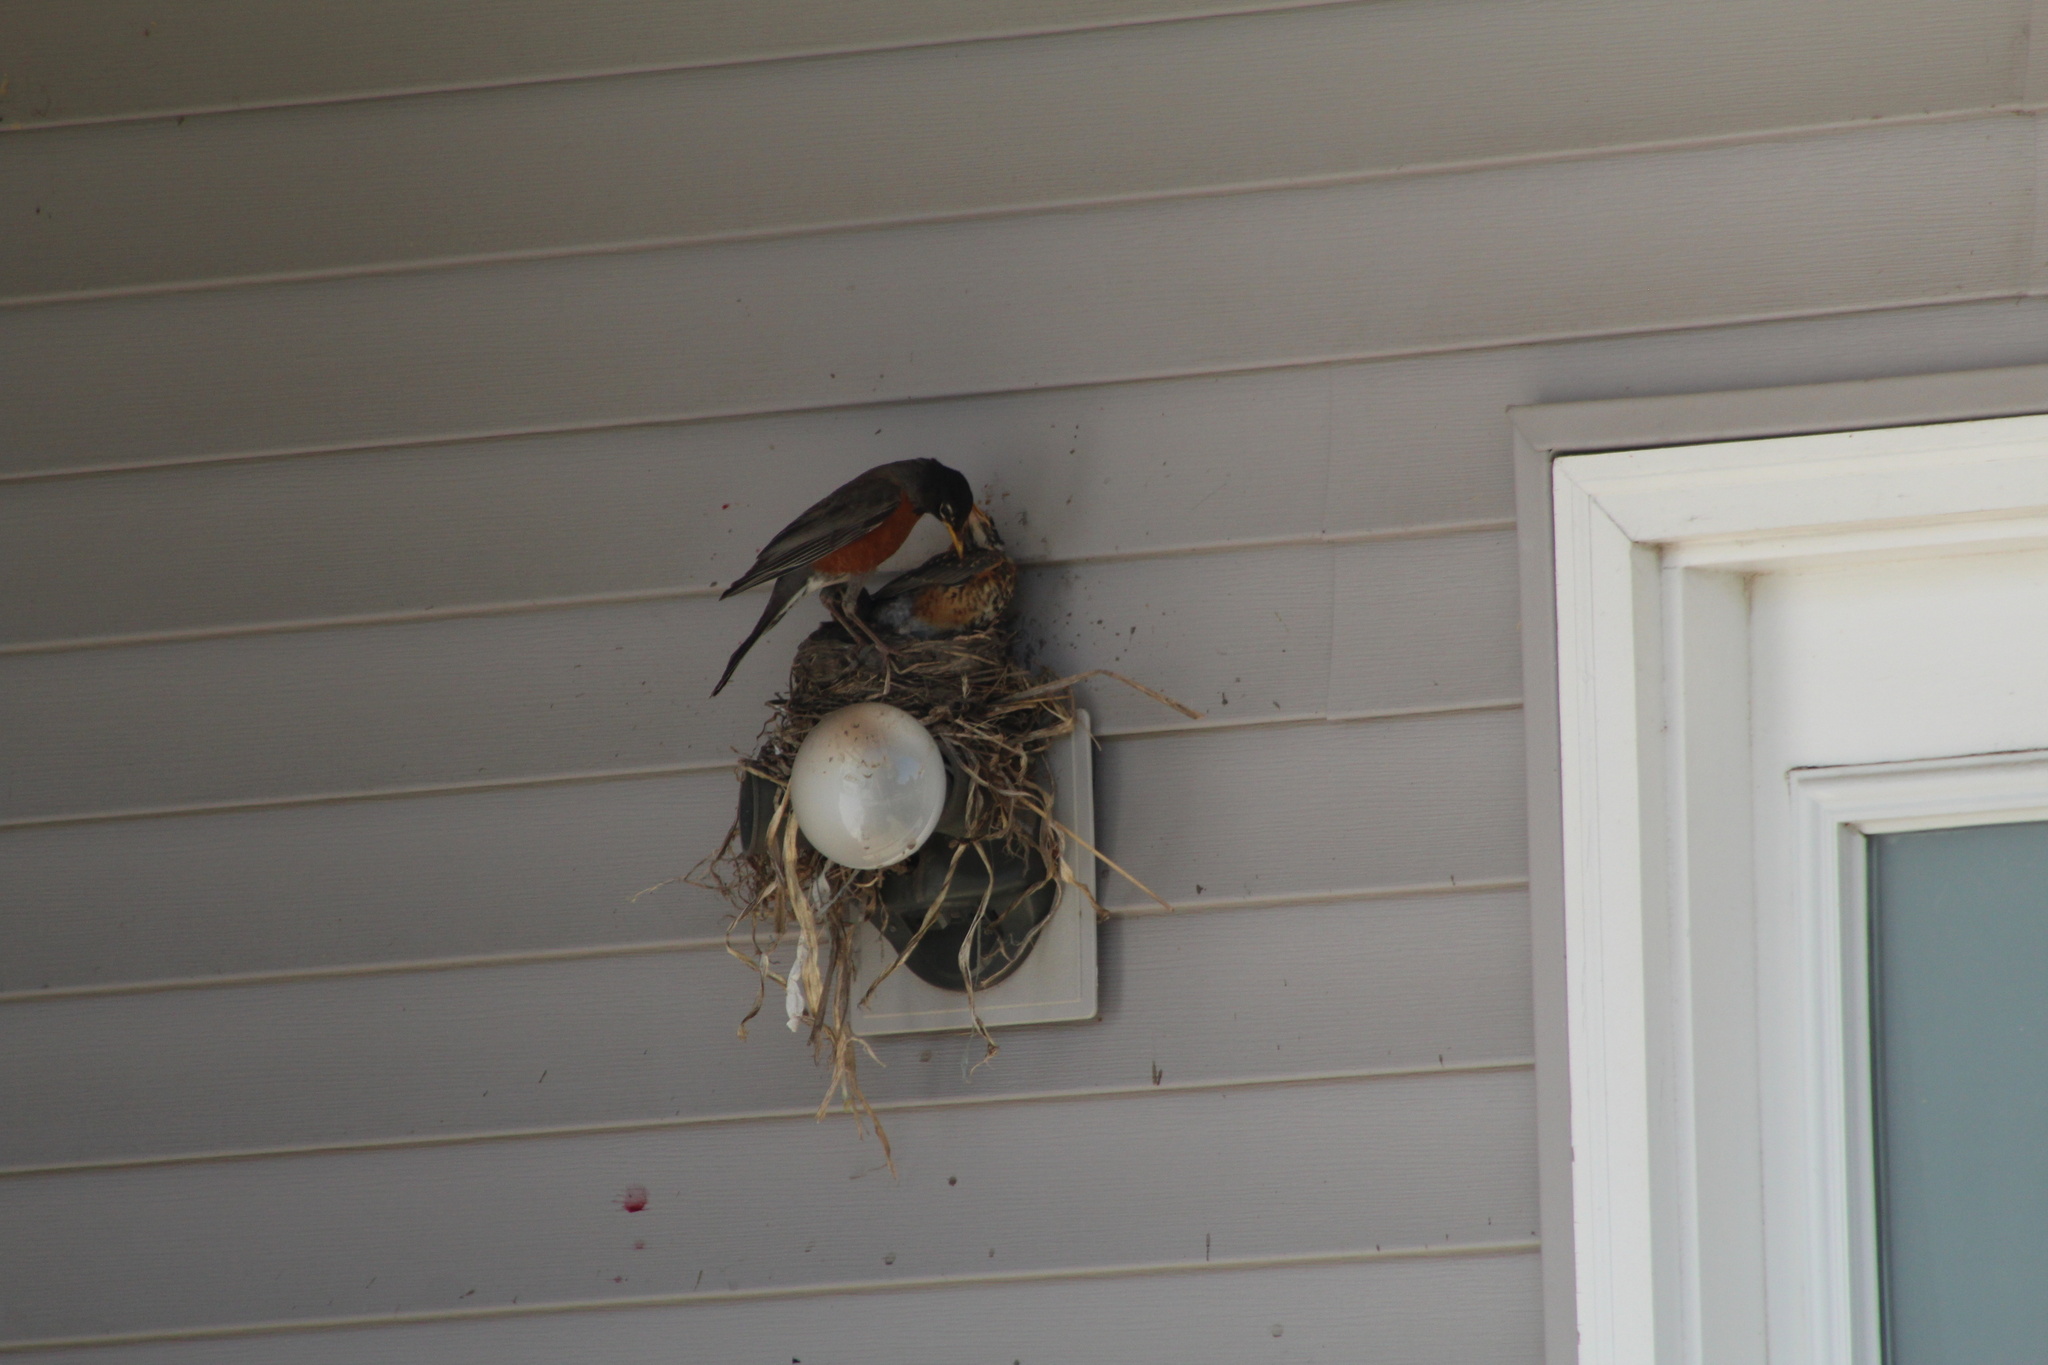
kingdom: Animalia
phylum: Chordata
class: Aves
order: Passeriformes
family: Turdidae
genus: Turdus
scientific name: Turdus migratorius
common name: American robin
